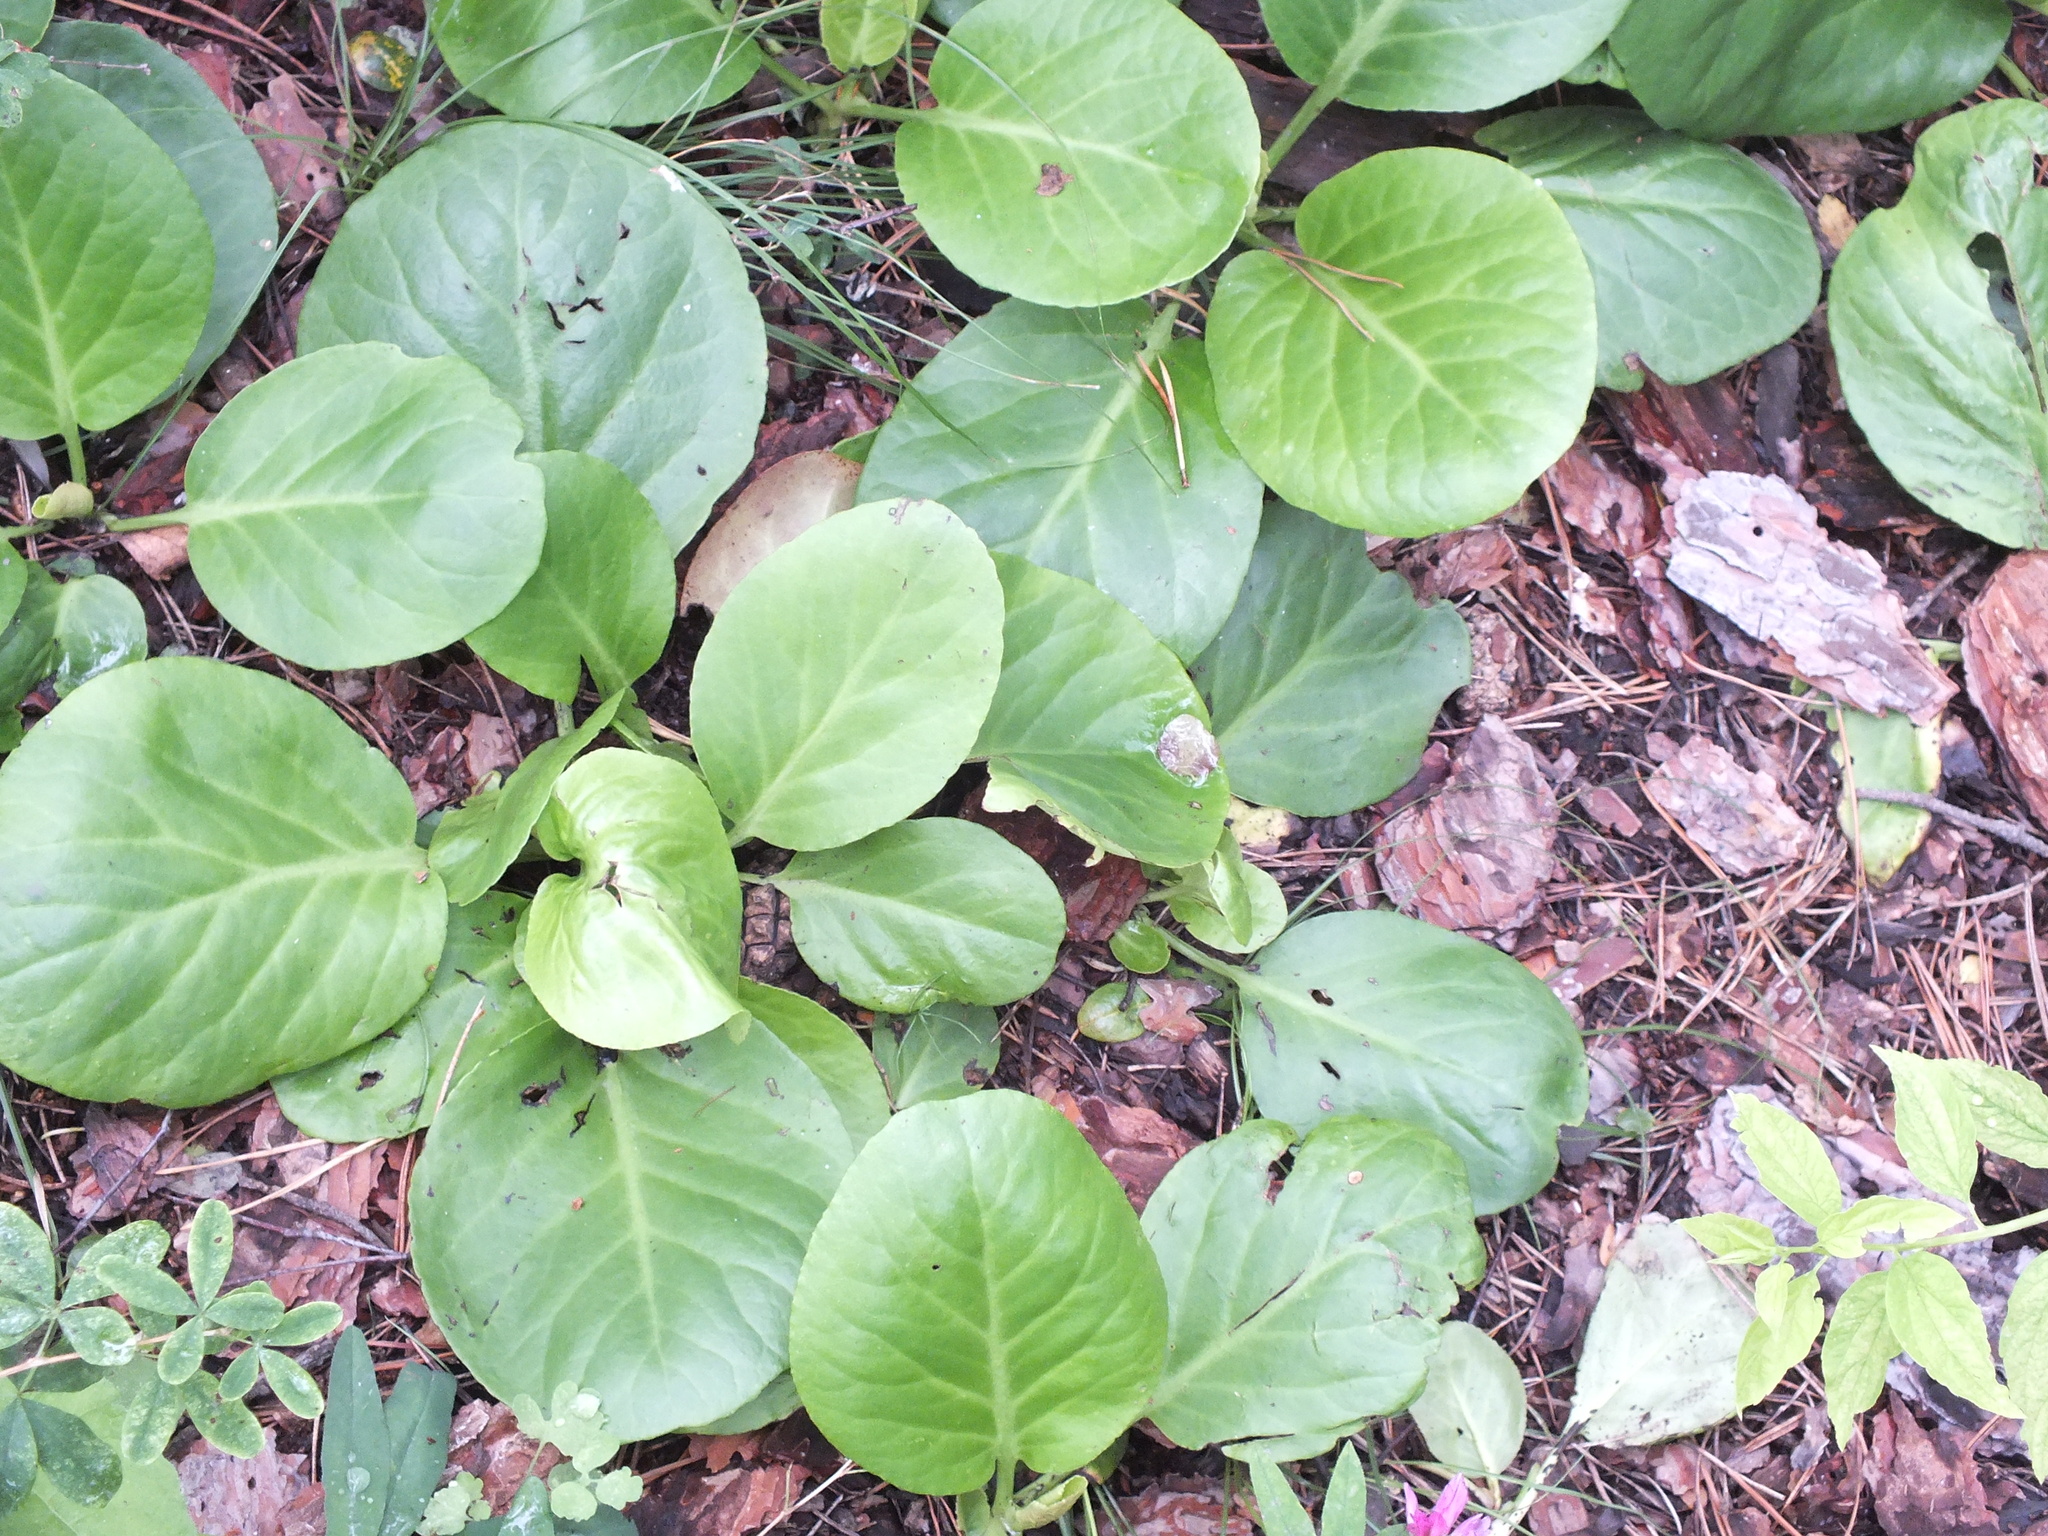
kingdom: Plantae
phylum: Tracheophyta
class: Magnoliopsida
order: Saxifragales
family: Saxifragaceae
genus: Bergenia
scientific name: Bergenia crassifolia
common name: Elephant-ears
